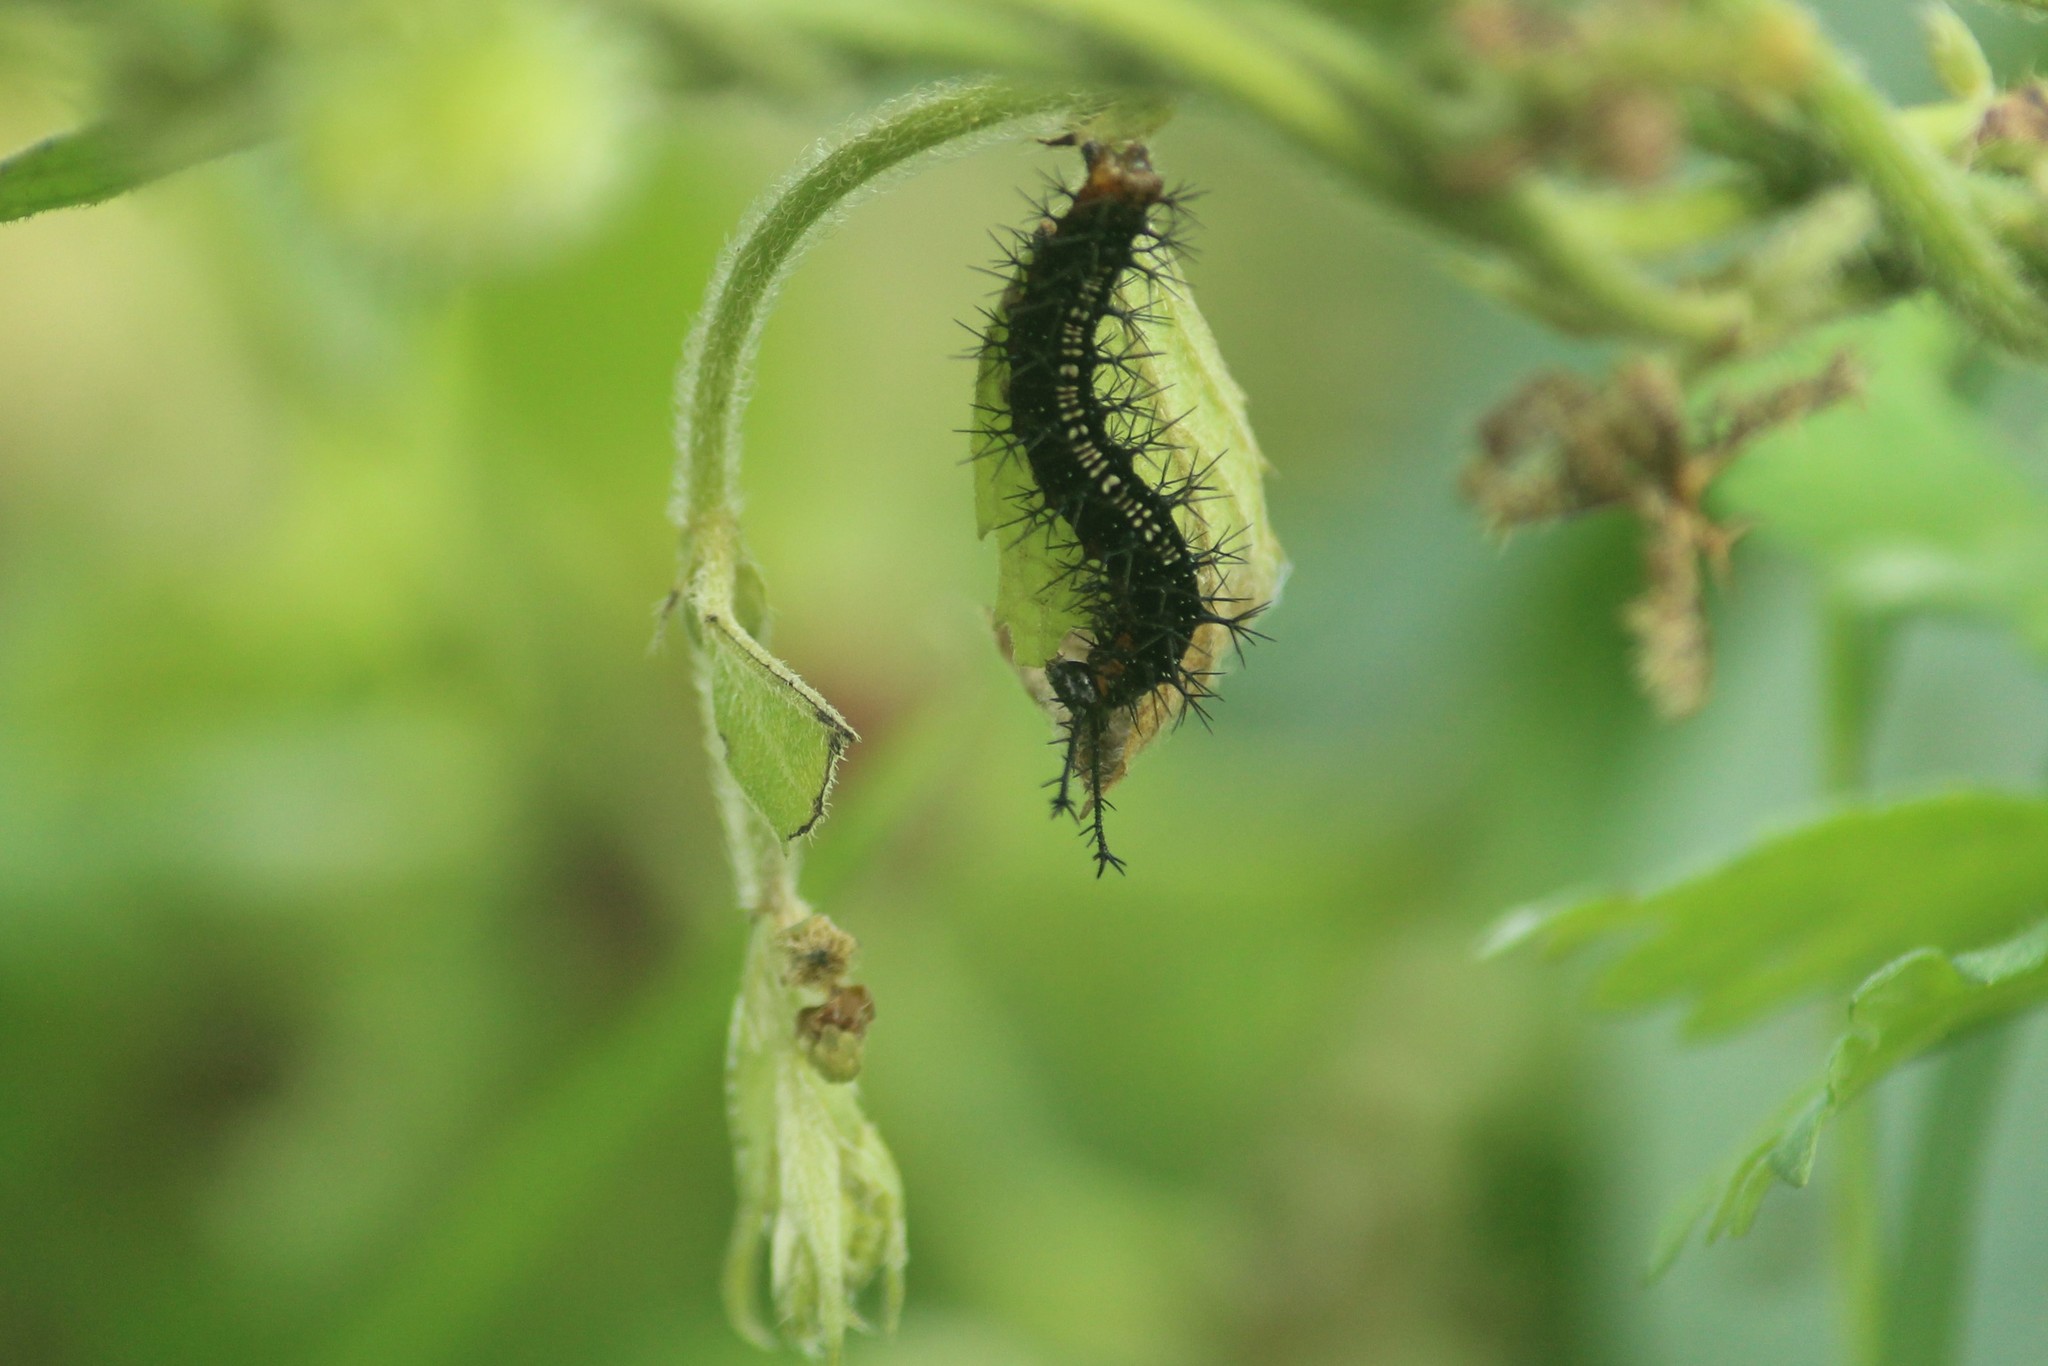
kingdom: Animalia
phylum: Arthropoda
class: Insecta
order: Lepidoptera
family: Nymphalidae
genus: Ariadne
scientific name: Ariadne ariadne
